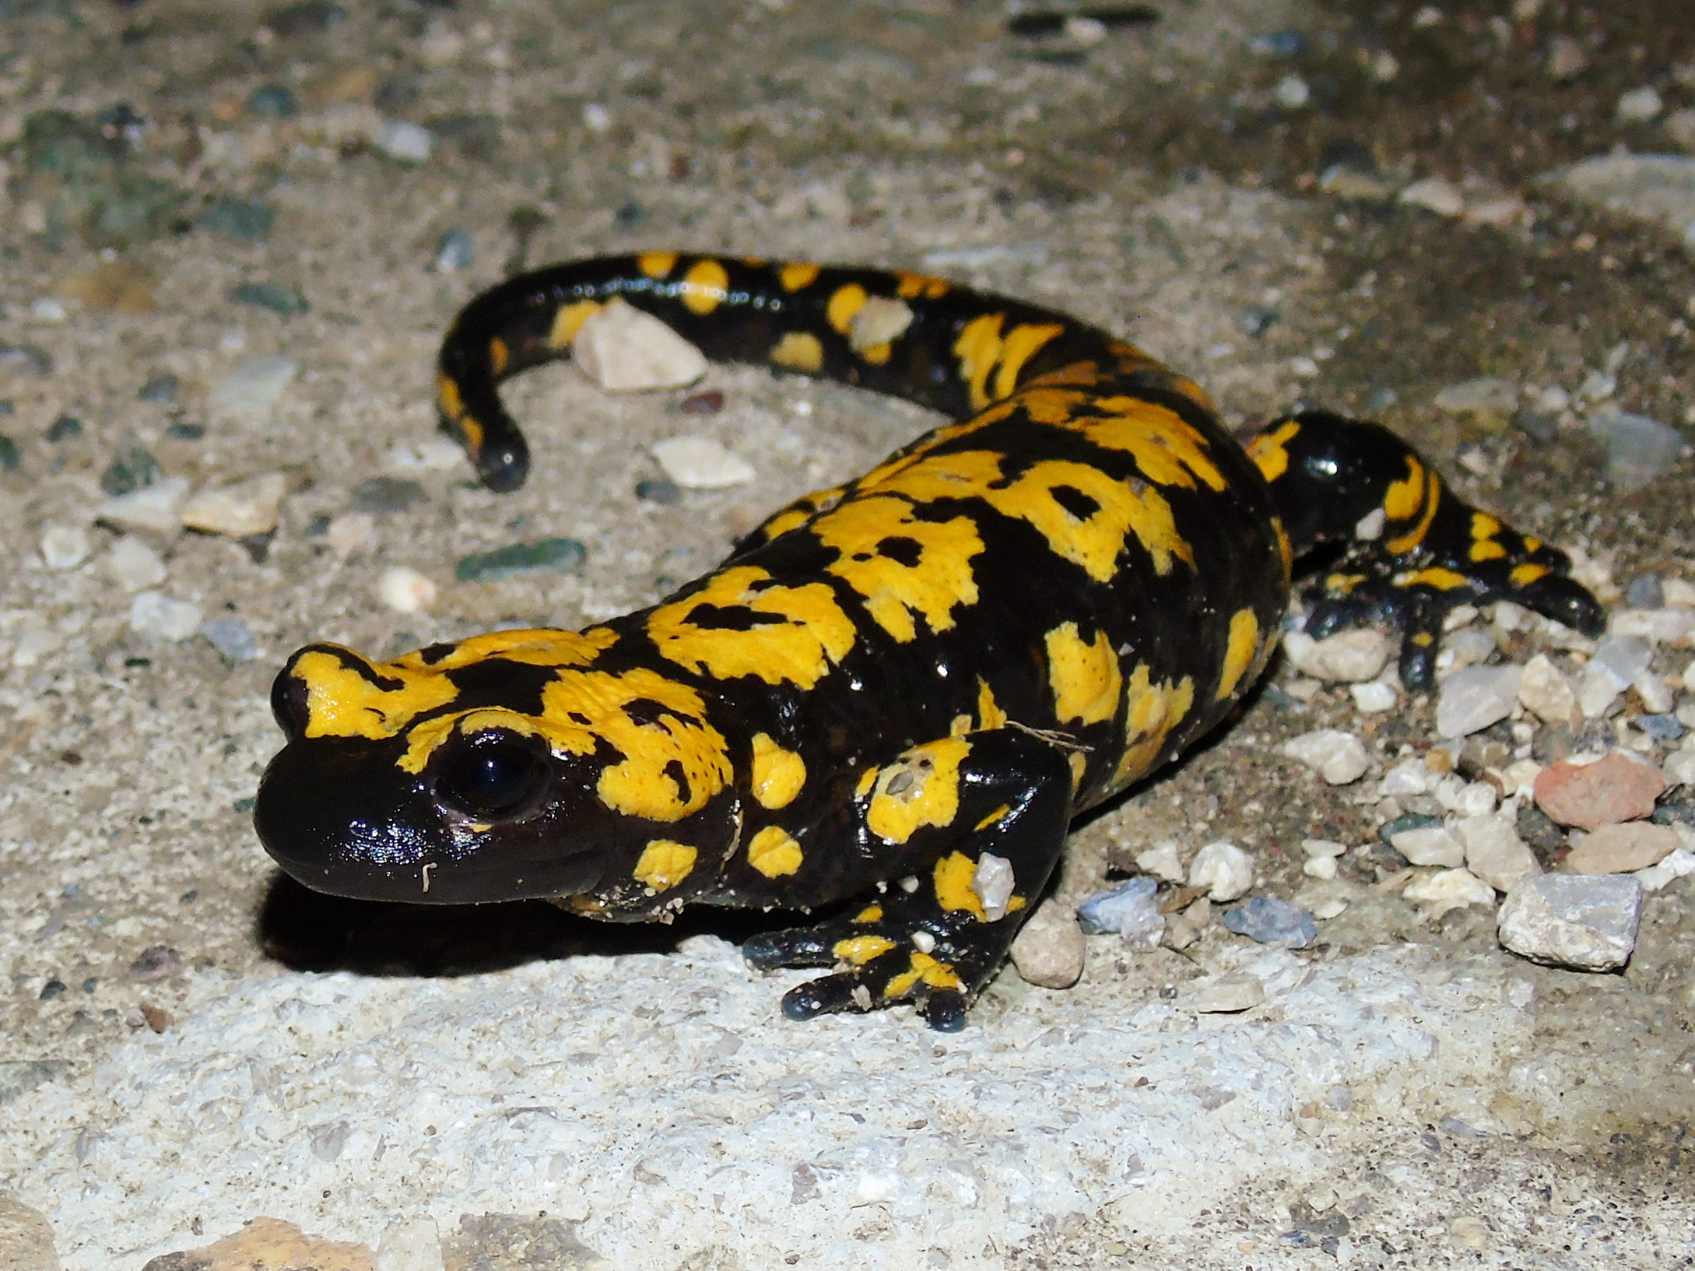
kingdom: Animalia
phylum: Chordata
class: Amphibia
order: Caudata
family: Salamandridae
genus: Salamandra
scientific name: Salamandra infraimmaculata
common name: Near-eastern fire salamander
